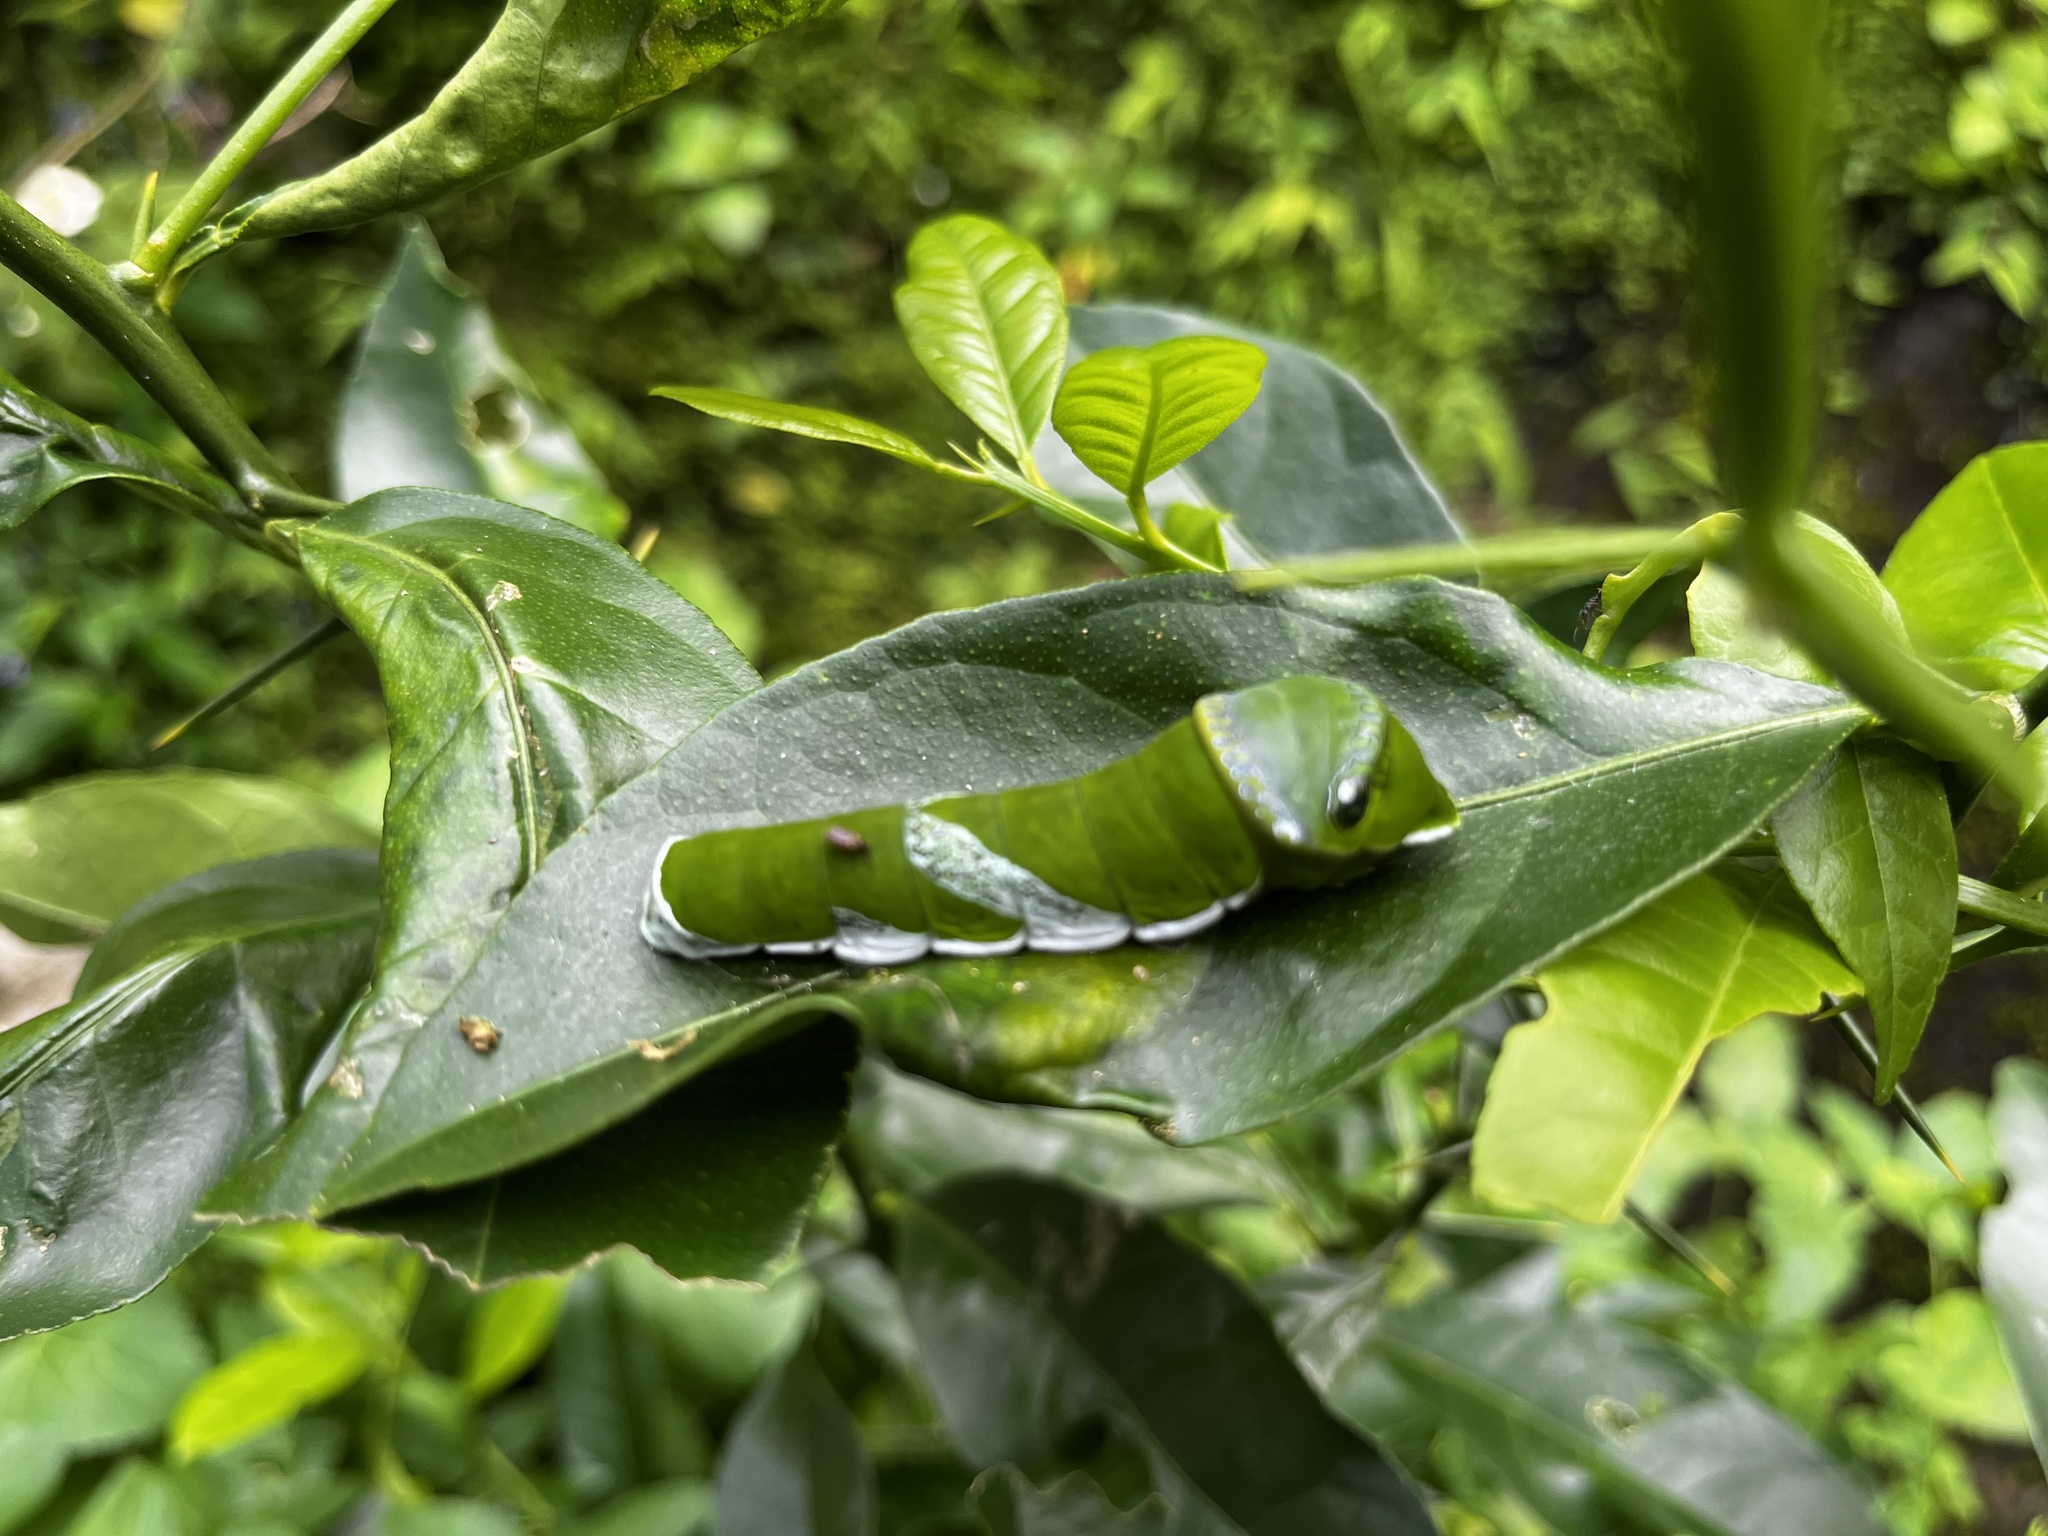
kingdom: Animalia
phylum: Arthropoda
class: Insecta
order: Lepidoptera
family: Papilionidae
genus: Papilio
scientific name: Papilio memnon
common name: Great mormon
